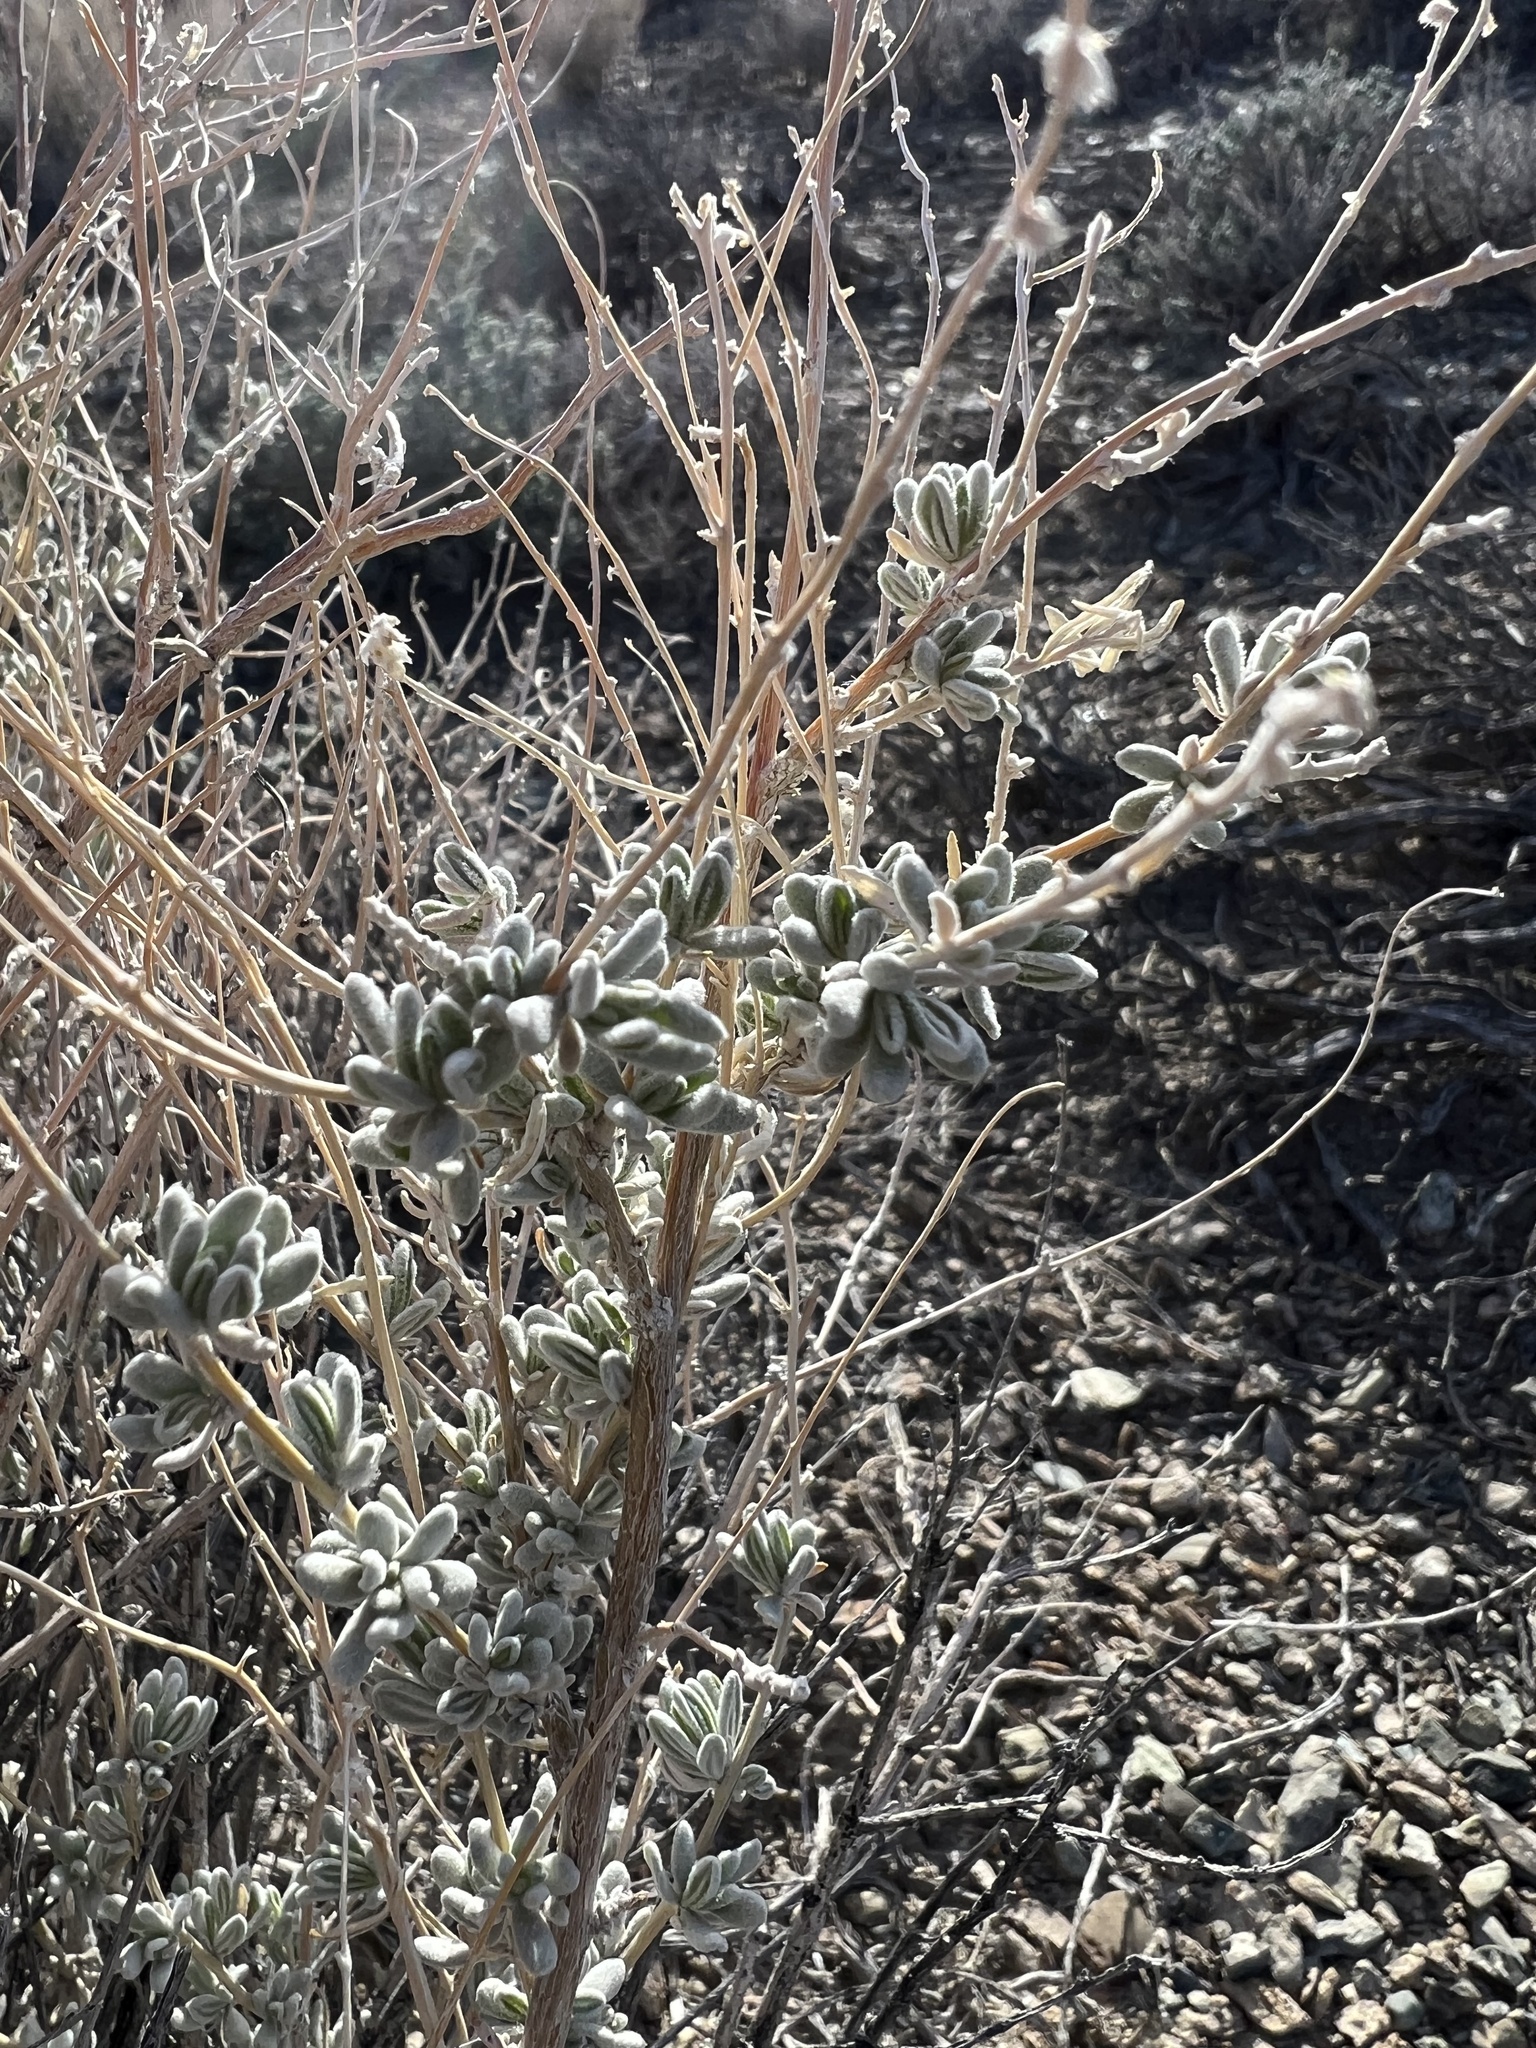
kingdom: Plantae
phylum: Tracheophyta
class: Magnoliopsida
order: Caryophyllales
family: Amaranthaceae
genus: Krascheninnikovia
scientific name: Krascheninnikovia lanata
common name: Winterfat
